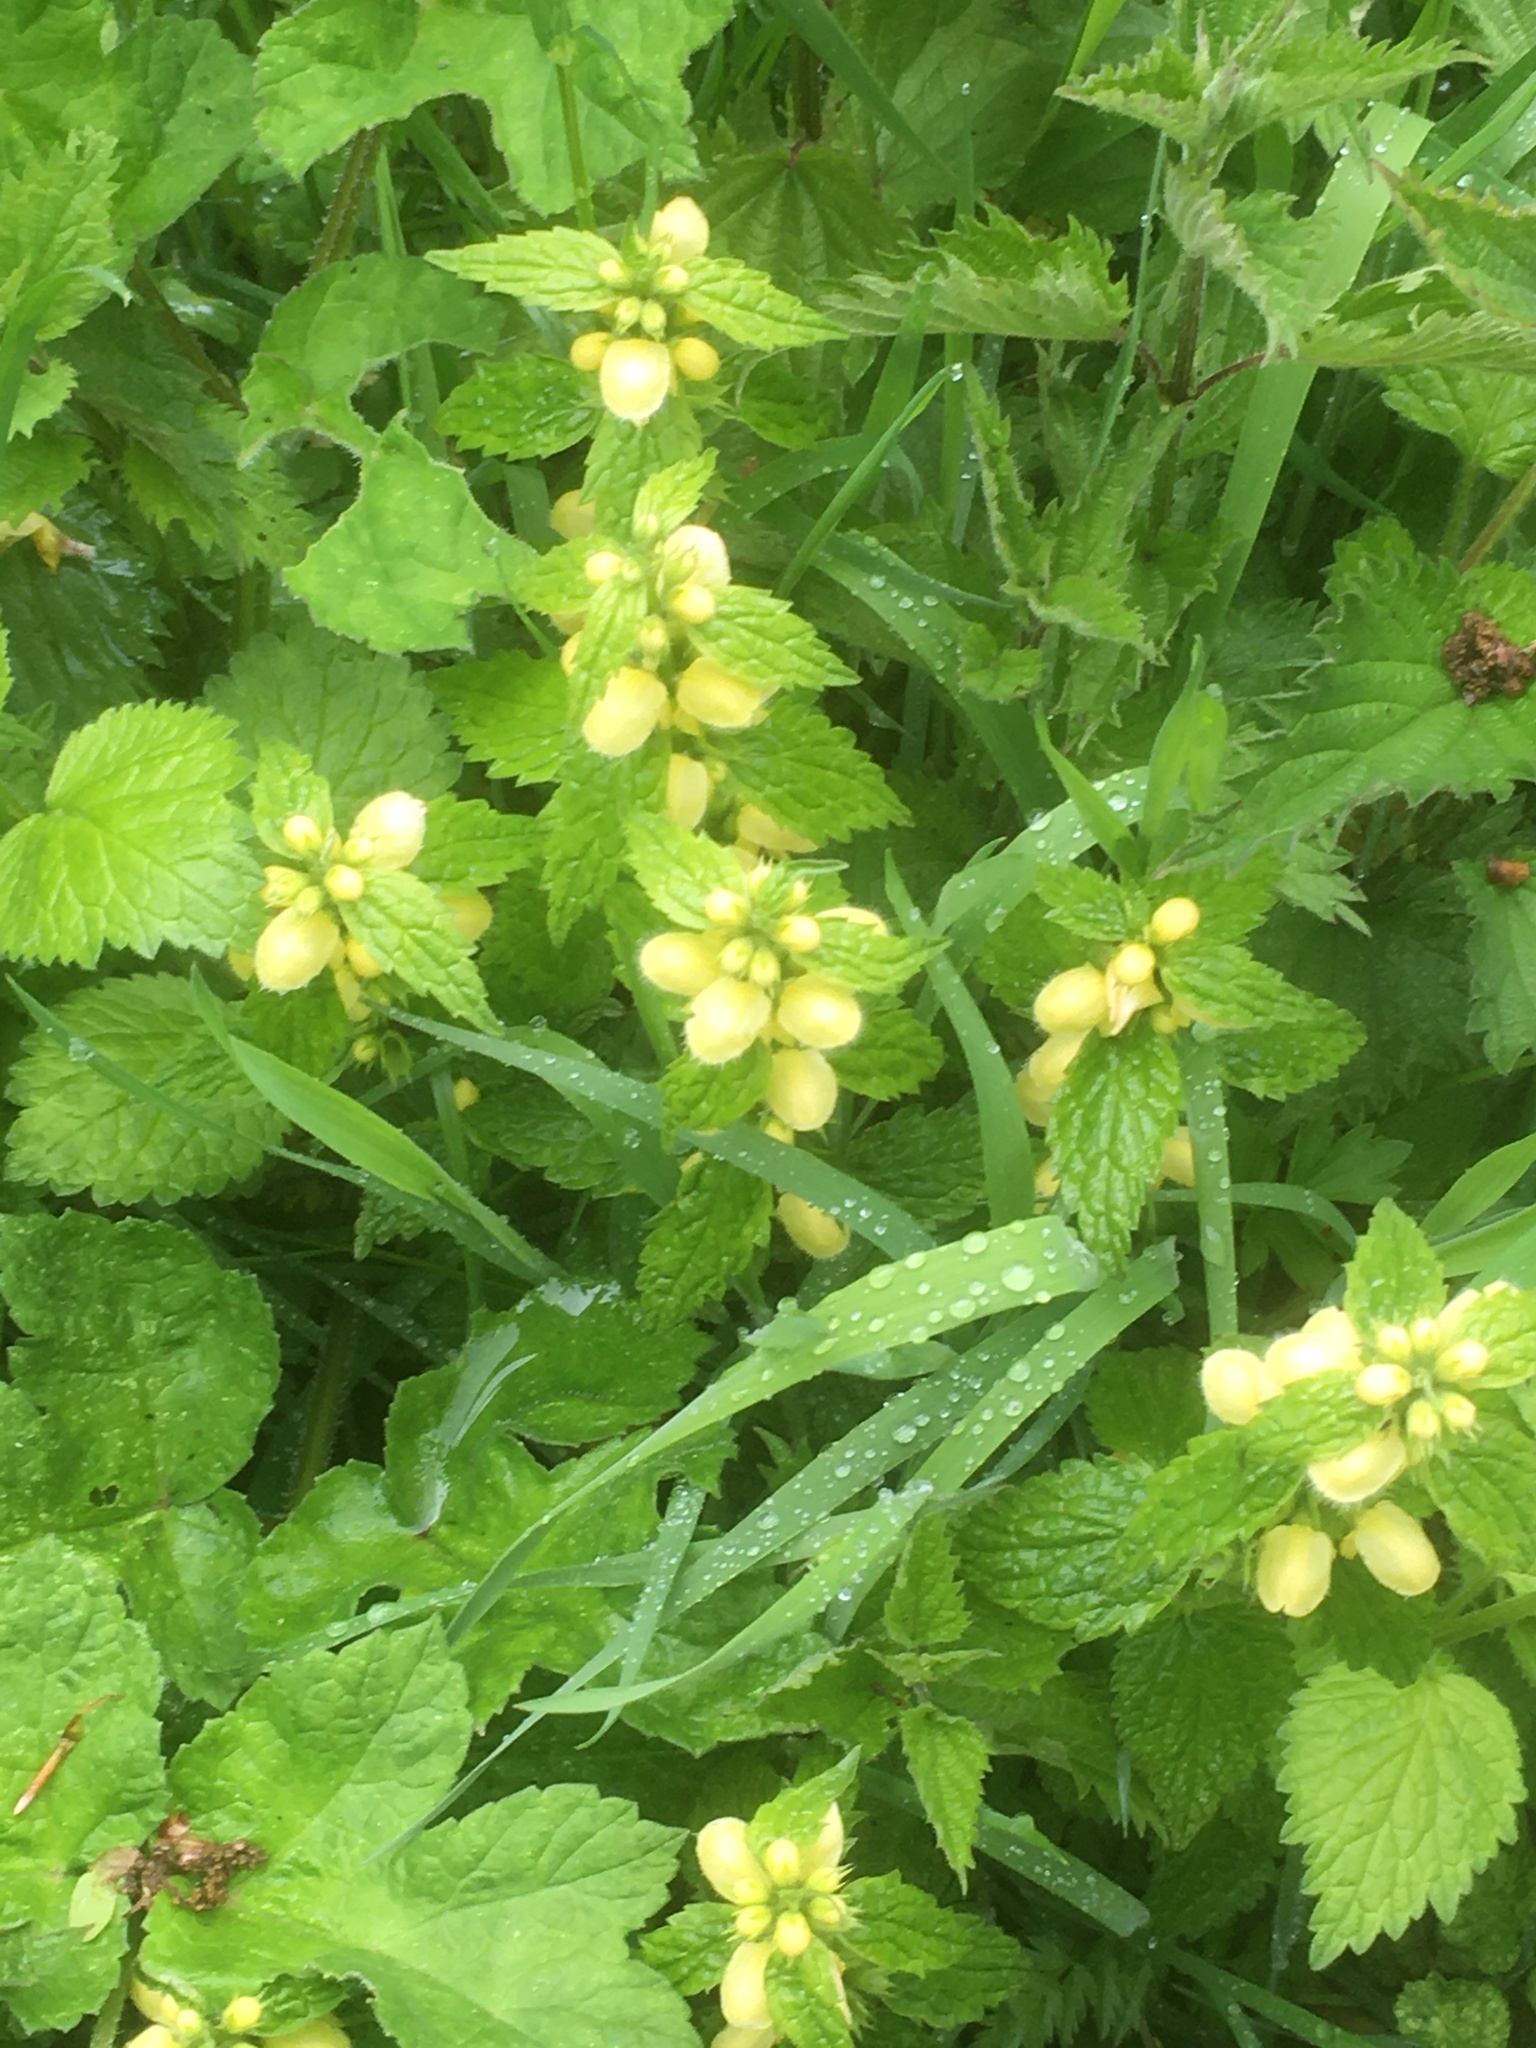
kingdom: Plantae
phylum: Tracheophyta
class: Magnoliopsida
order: Lamiales
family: Lamiaceae
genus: Lamium
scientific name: Lamium galeobdolon
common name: Yellow archangel
